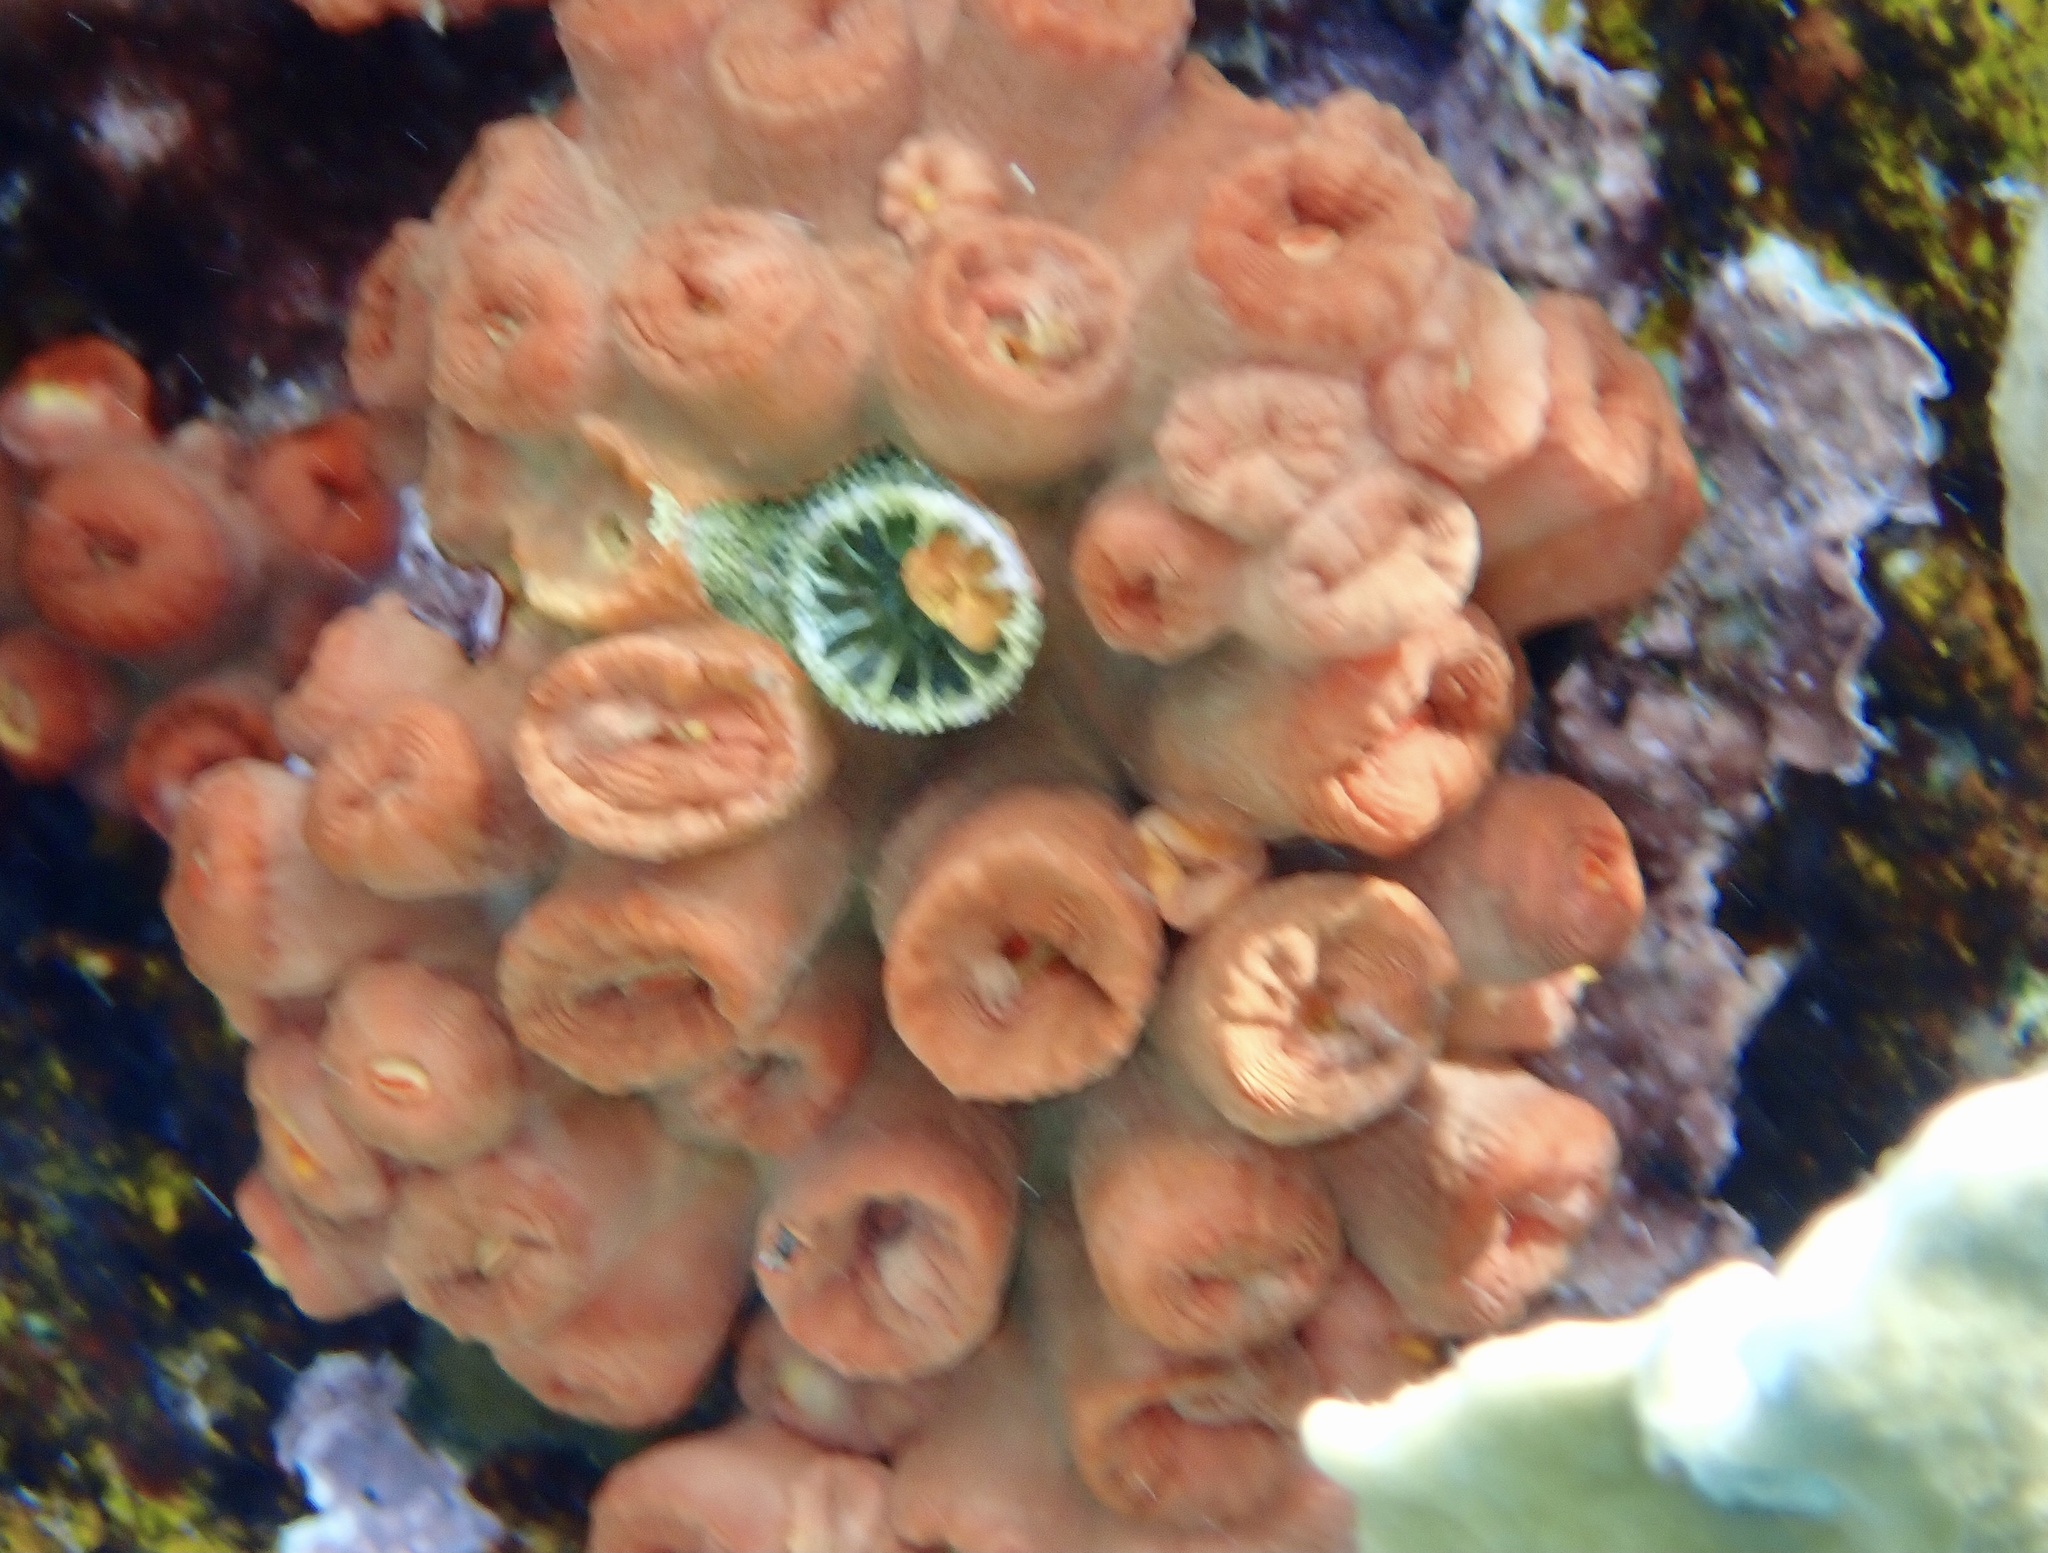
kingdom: Animalia
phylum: Cnidaria
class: Anthozoa
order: Scleractinia
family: Dendrophylliidae
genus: Tubastraea
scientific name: Tubastraea coccinea
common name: Orange cup coral
